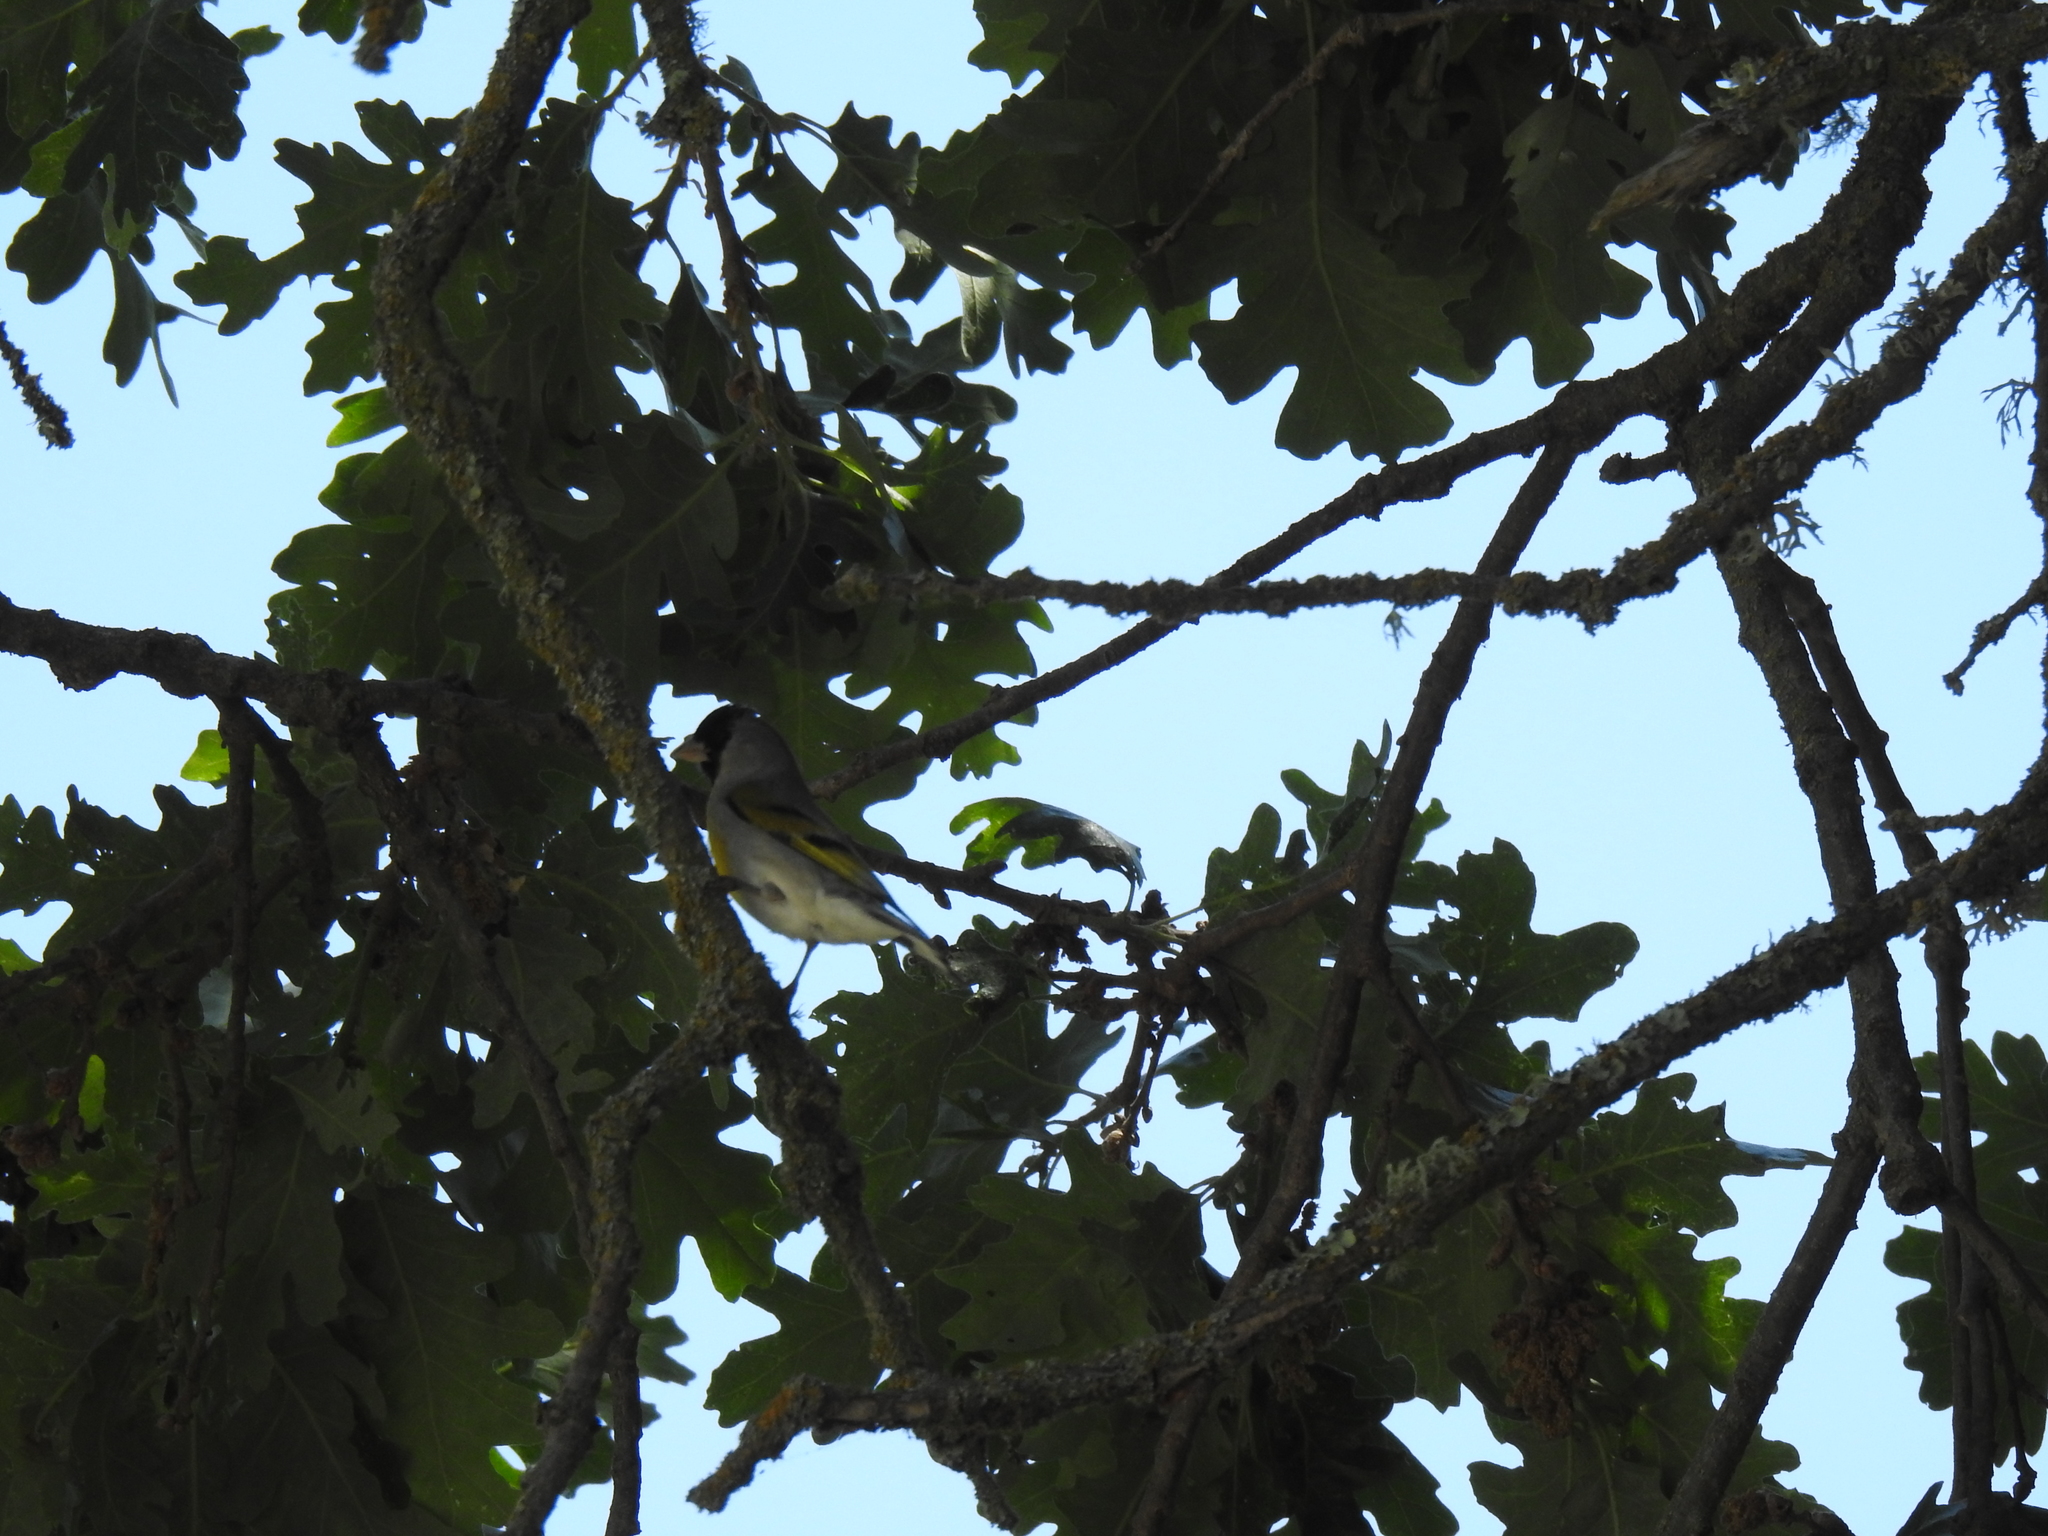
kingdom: Animalia
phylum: Chordata
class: Aves
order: Passeriformes
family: Fringillidae
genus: Spinus
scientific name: Spinus lawrencei
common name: Lawrence's goldfinch
